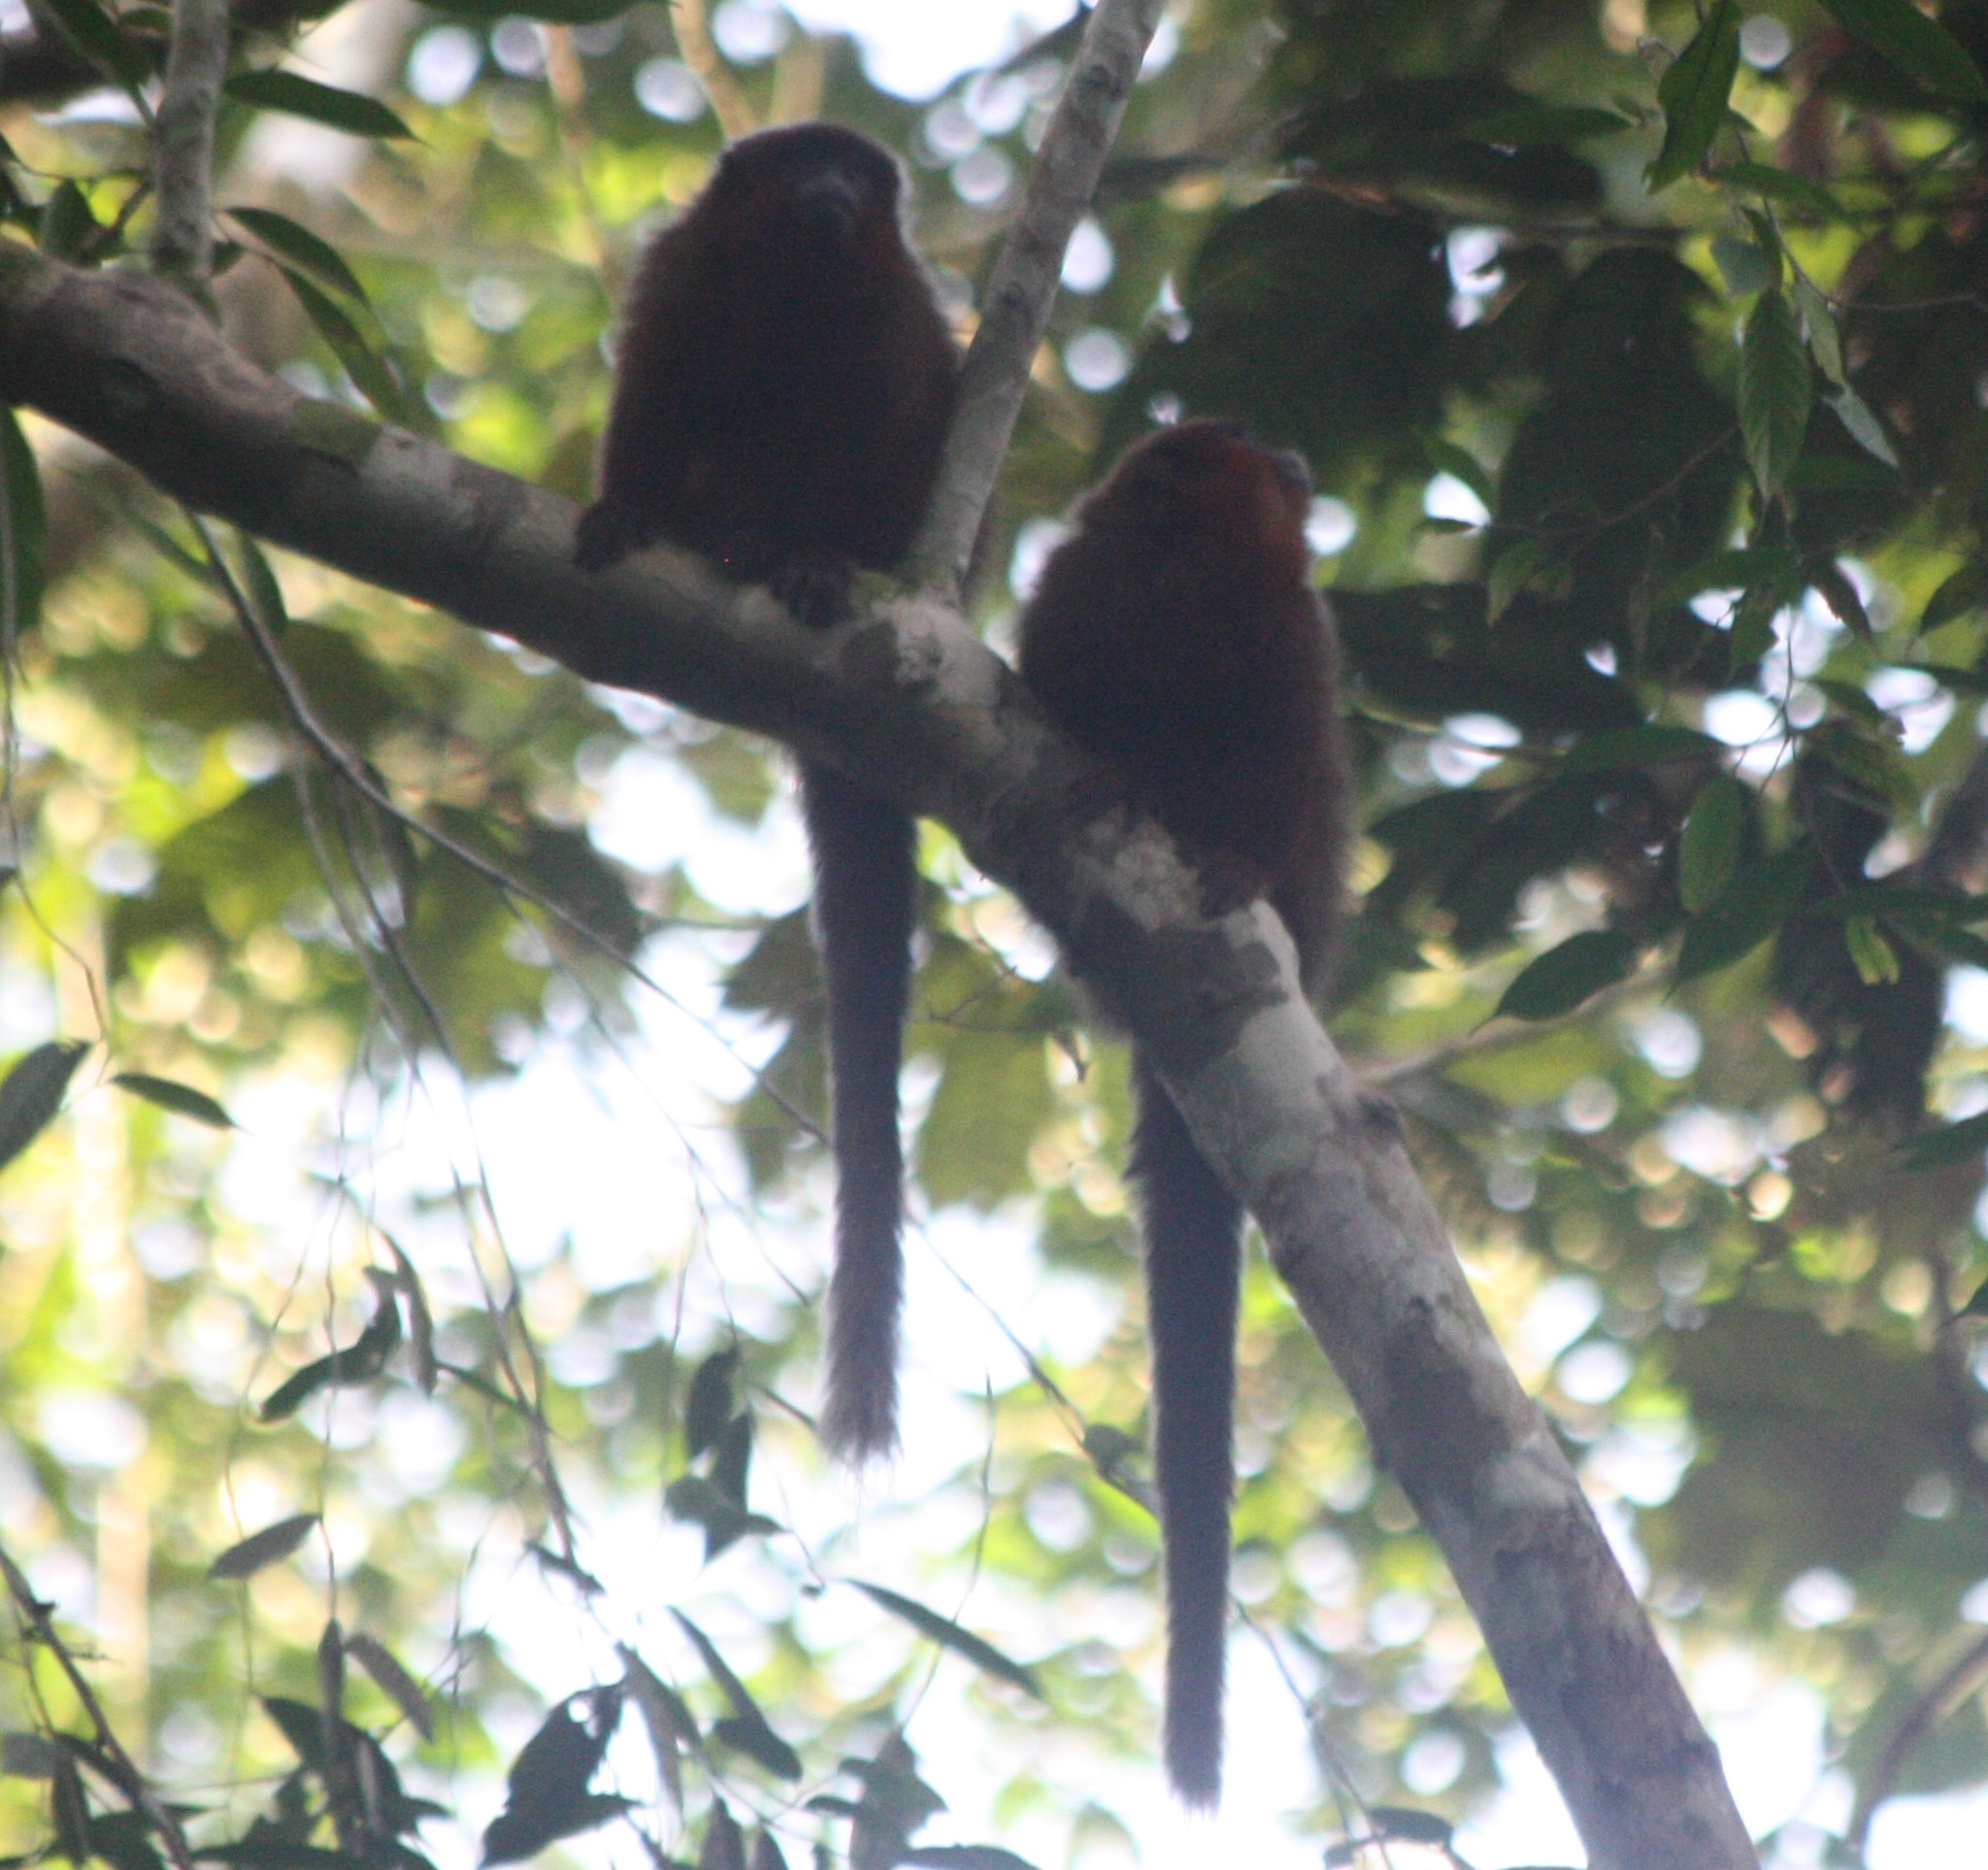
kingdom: Animalia
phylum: Chordata
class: Mammalia
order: Primates
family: Pitheciidae
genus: Plecturocebus
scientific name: Plecturocebus toppini
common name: Toppin's titi
